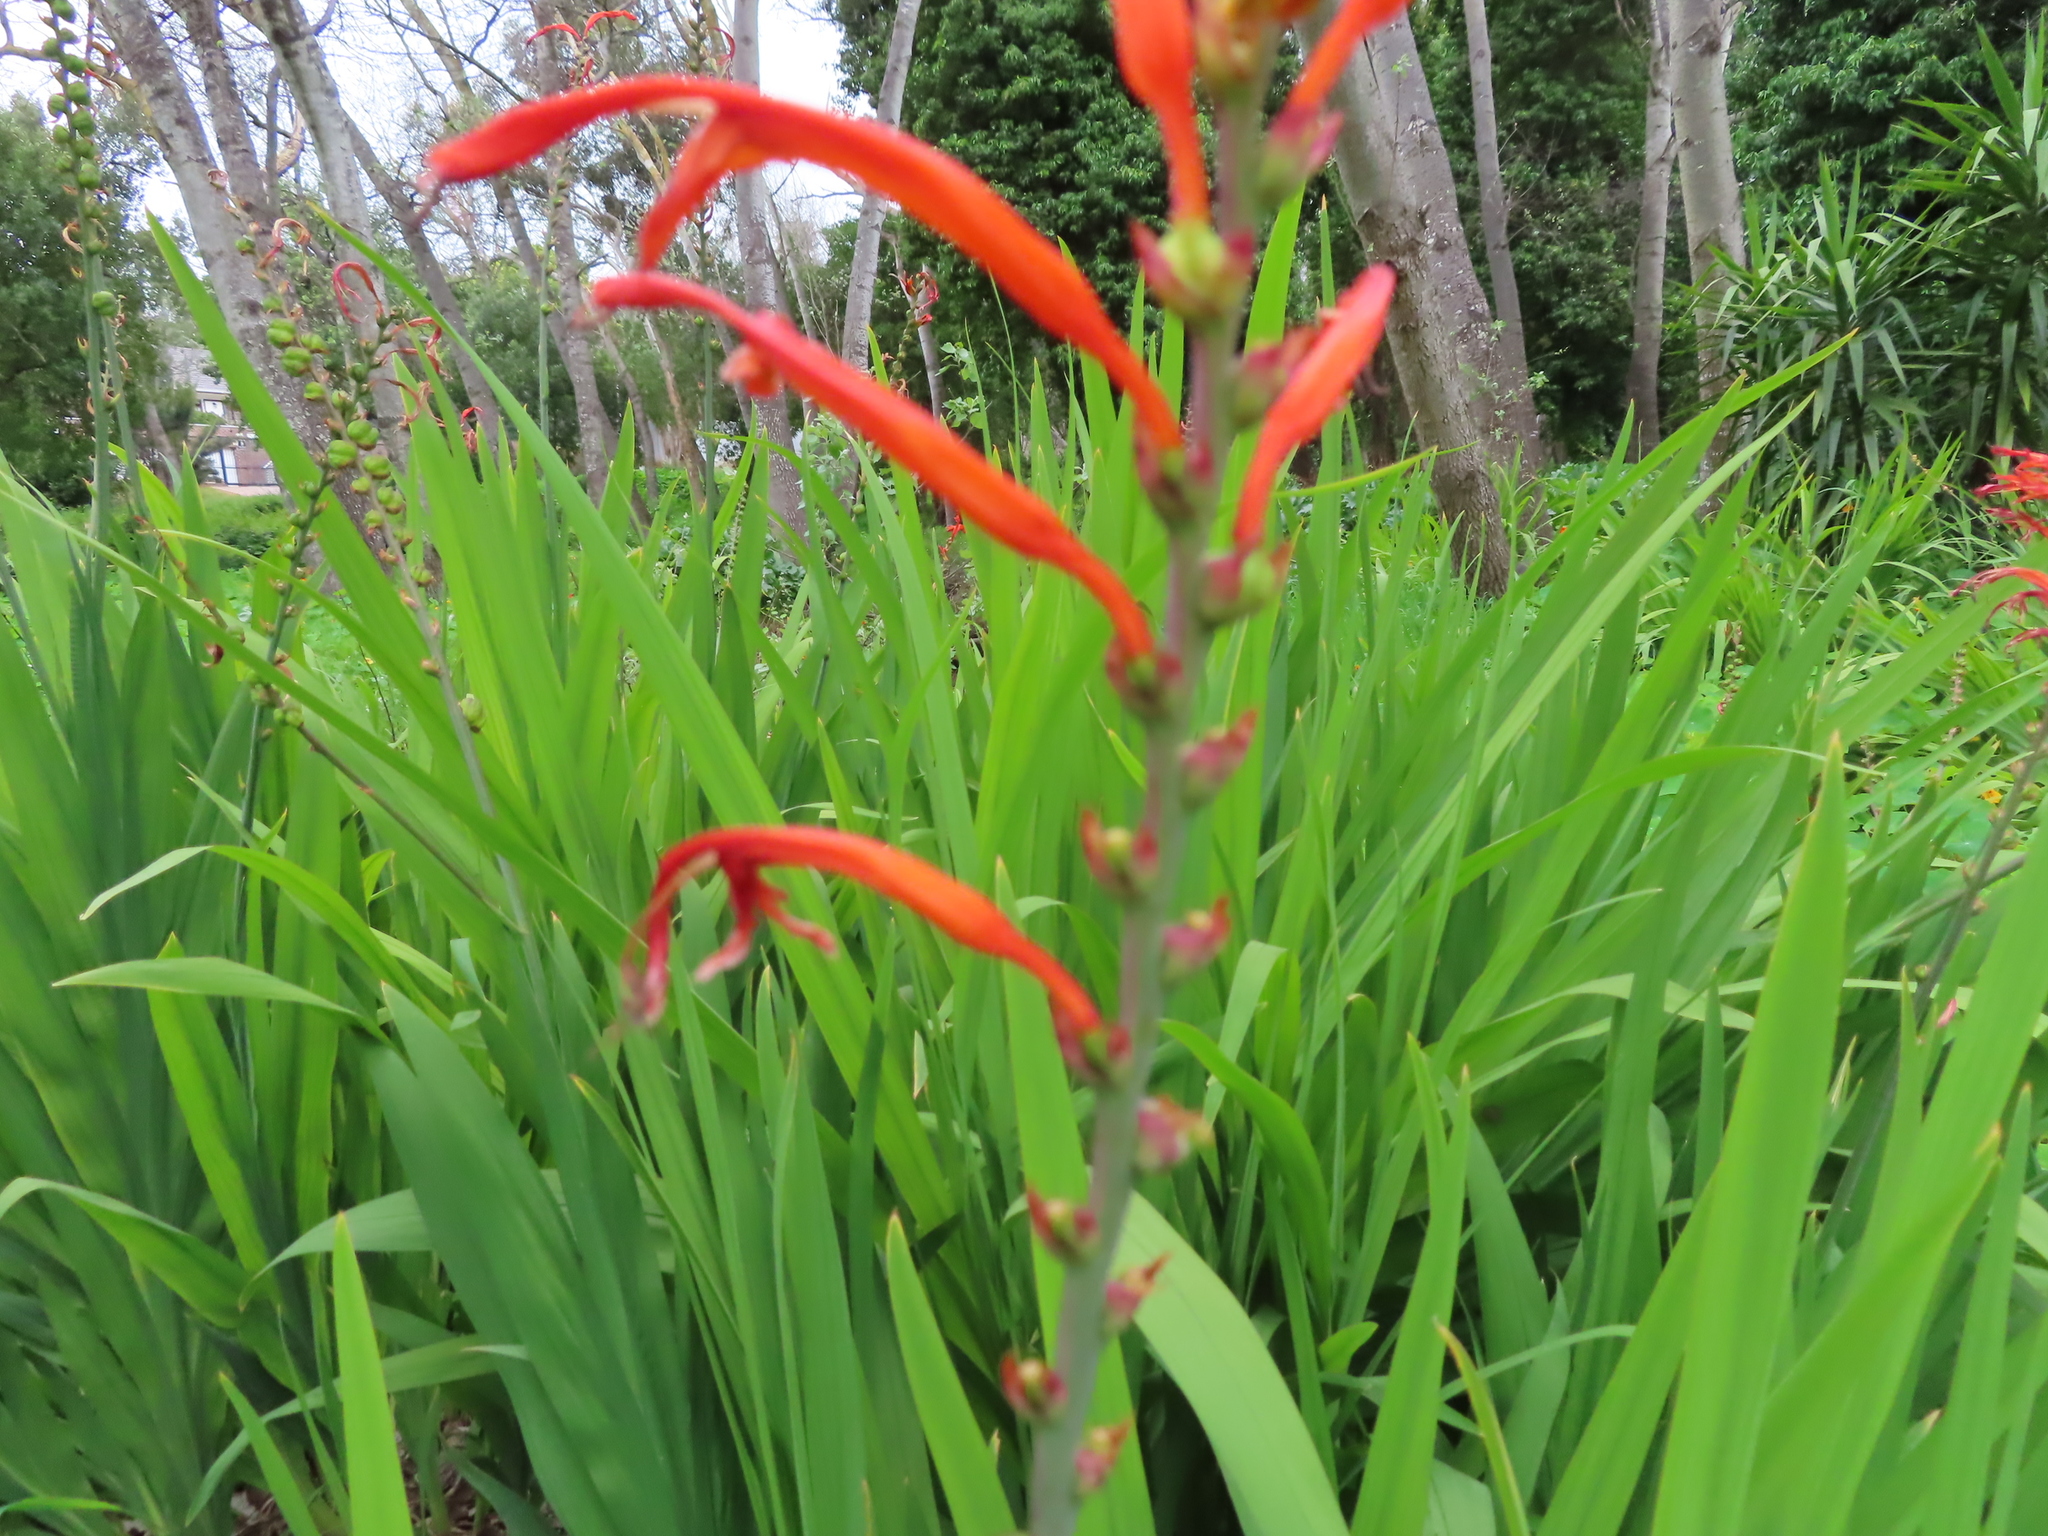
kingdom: Plantae
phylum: Tracheophyta
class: Liliopsida
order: Asparagales
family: Iridaceae
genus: Chasmanthe
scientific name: Chasmanthe floribunda
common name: African cornflag
